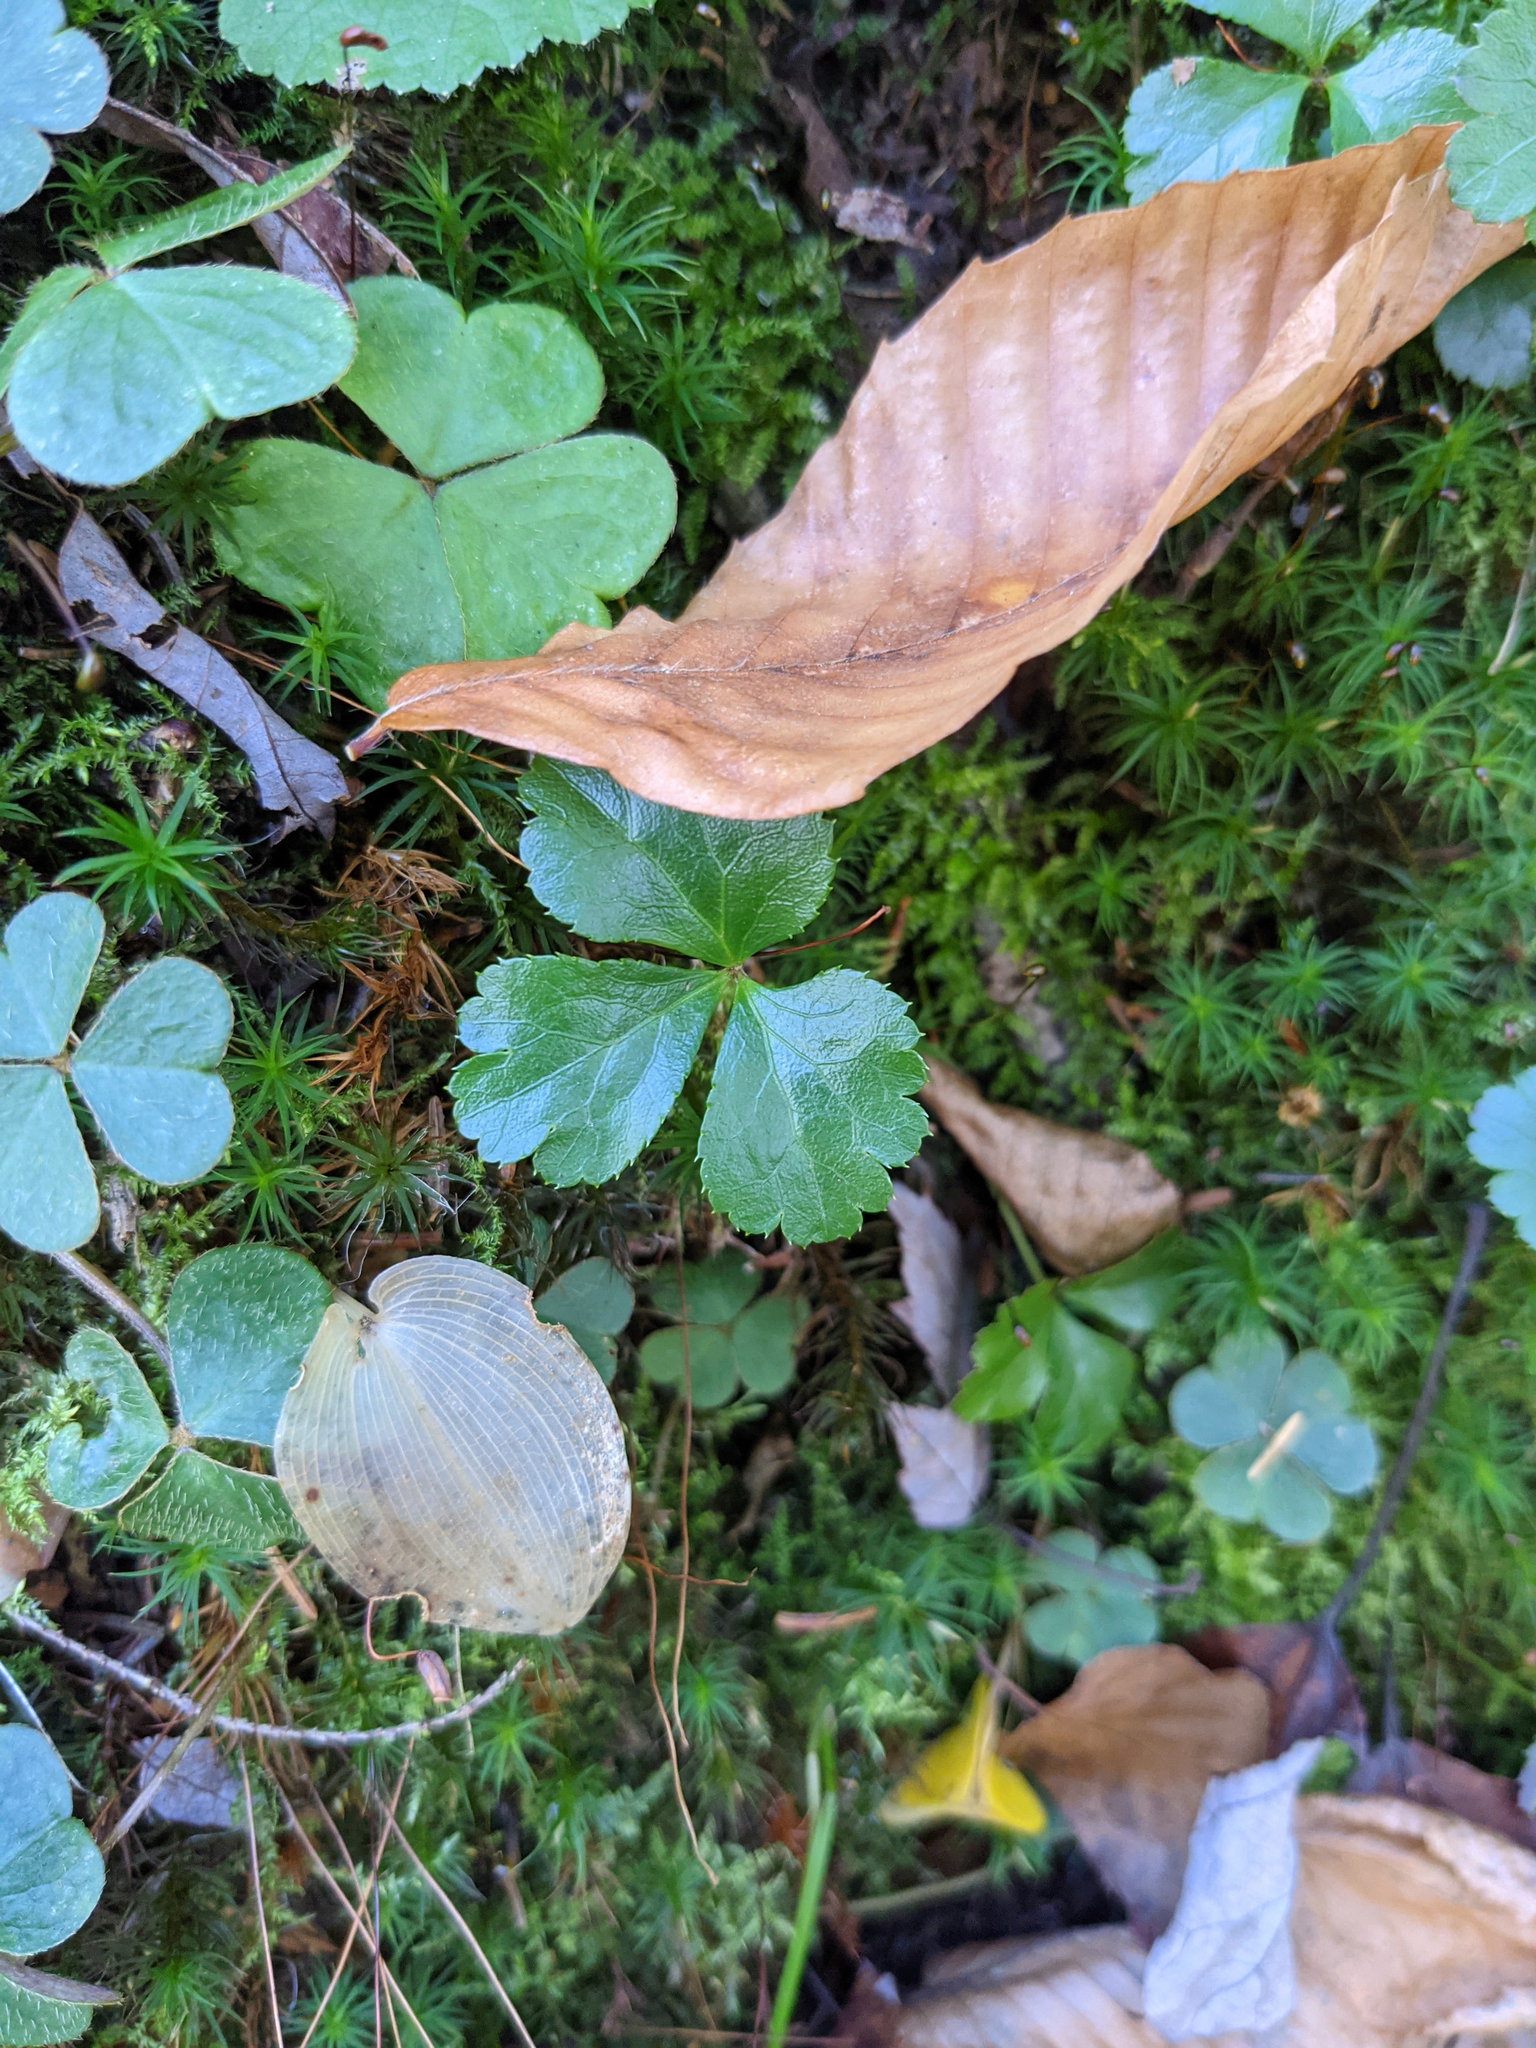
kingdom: Plantae
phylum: Tracheophyta
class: Magnoliopsida
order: Ranunculales
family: Ranunculaceae
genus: Coptis
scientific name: Coptis trifolia
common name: Canker-root
